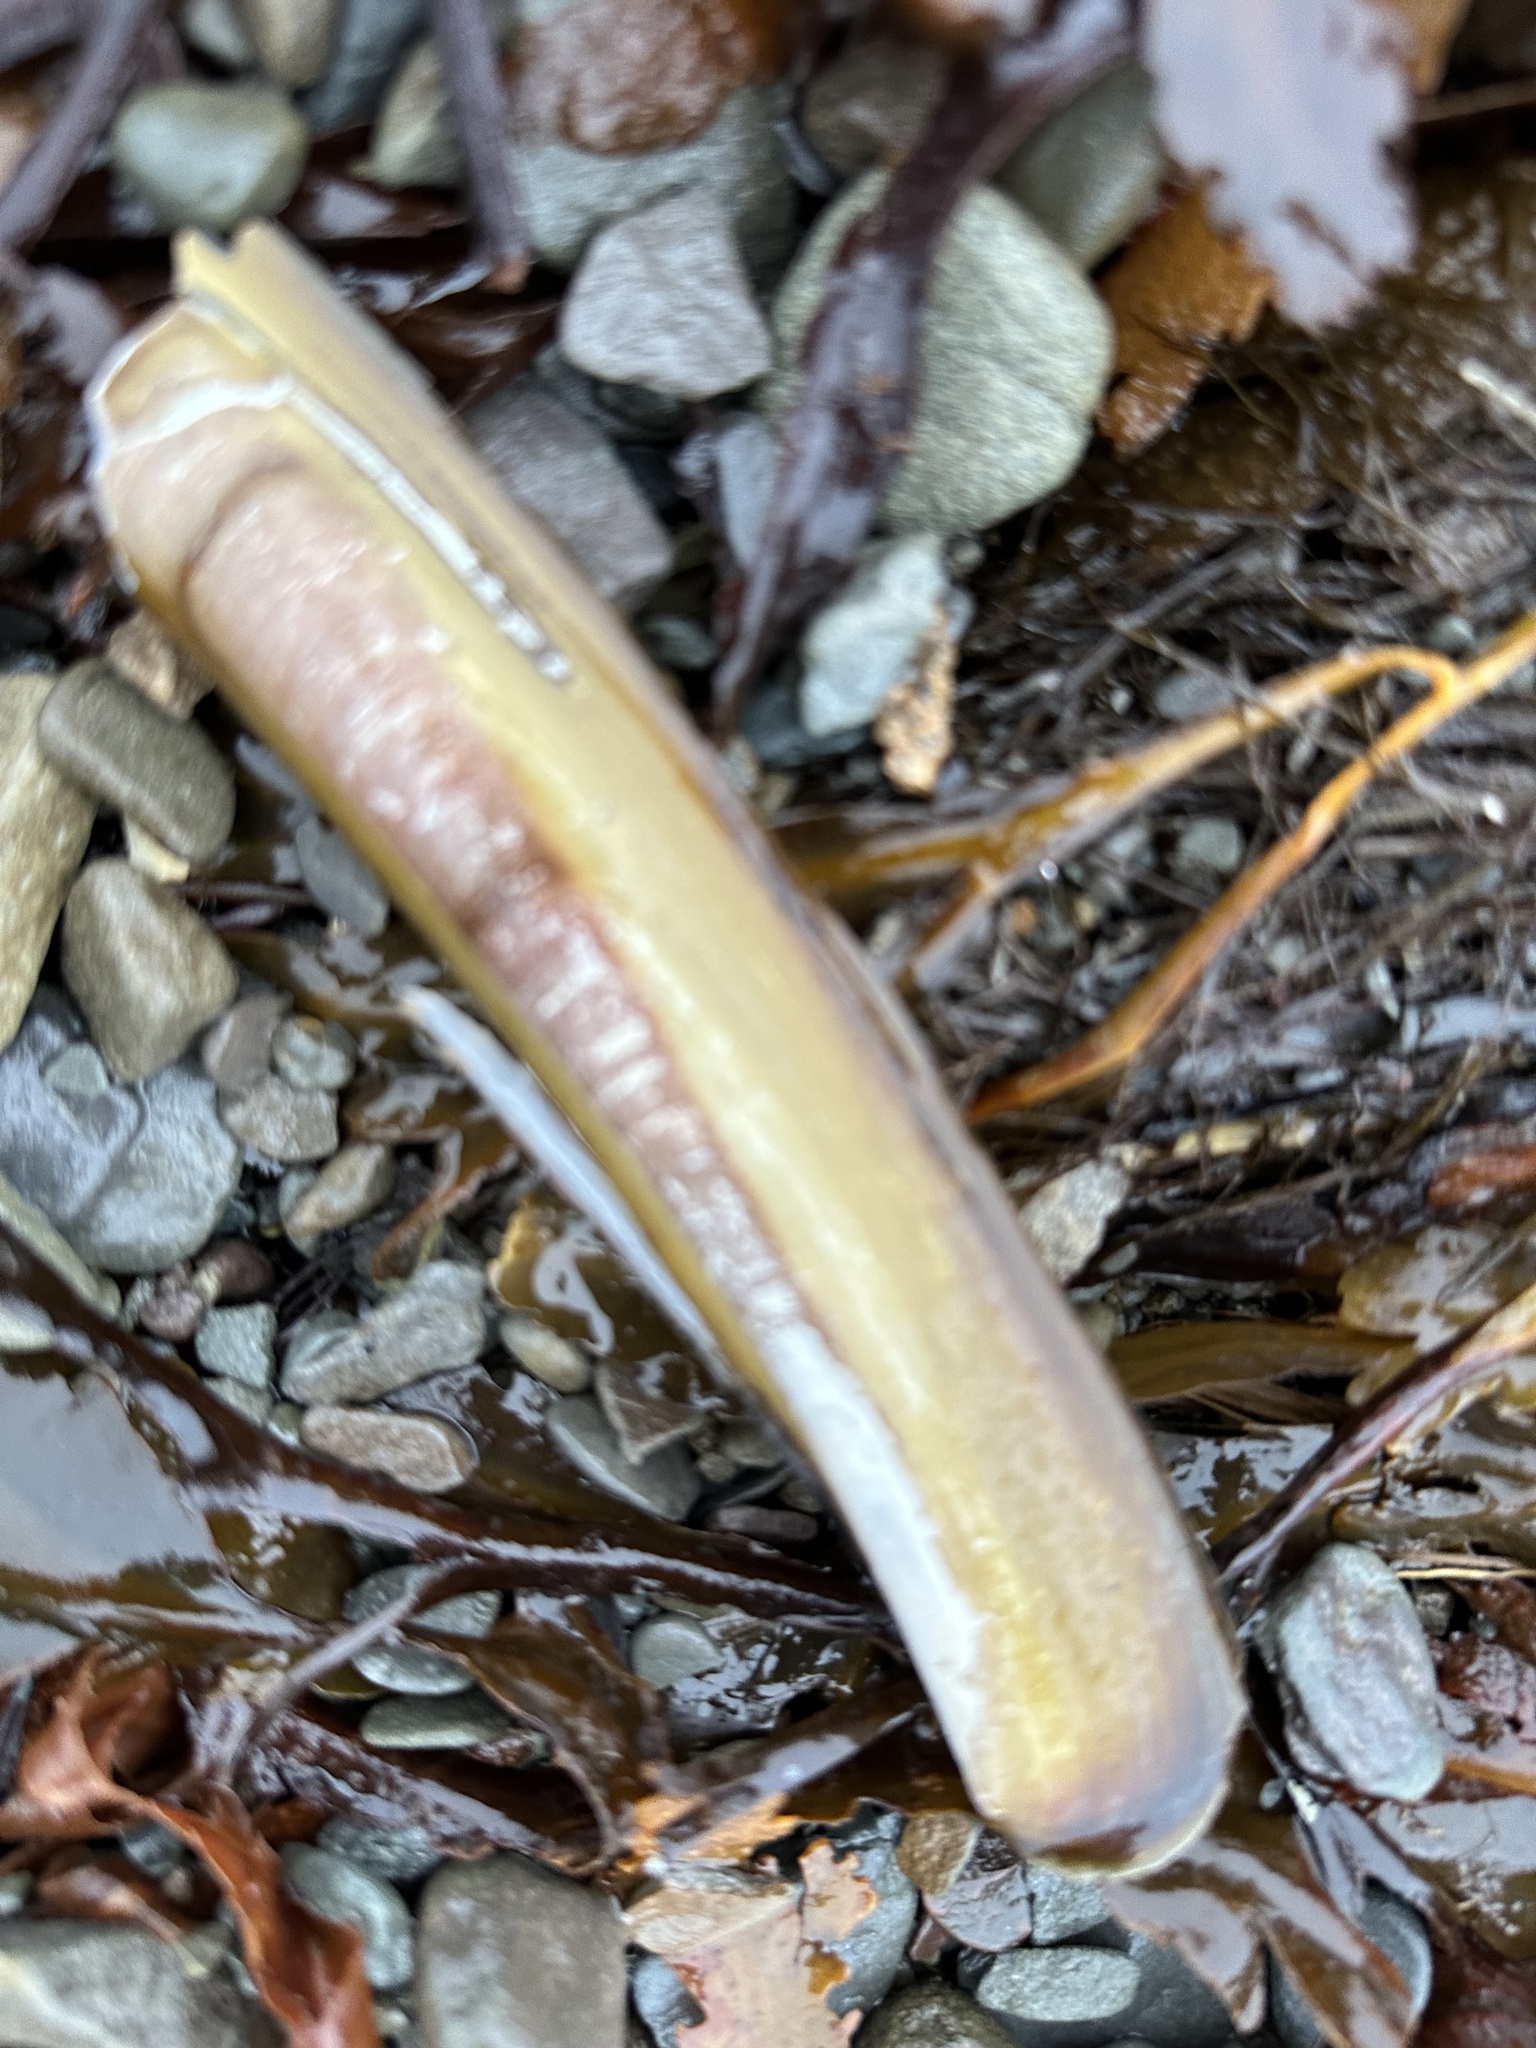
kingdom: Animalia
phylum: Mollusca
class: Bivalvia
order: Adapedonta
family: Pharidae
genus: Ensis
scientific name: Ensis leei
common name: American jack knife clam
